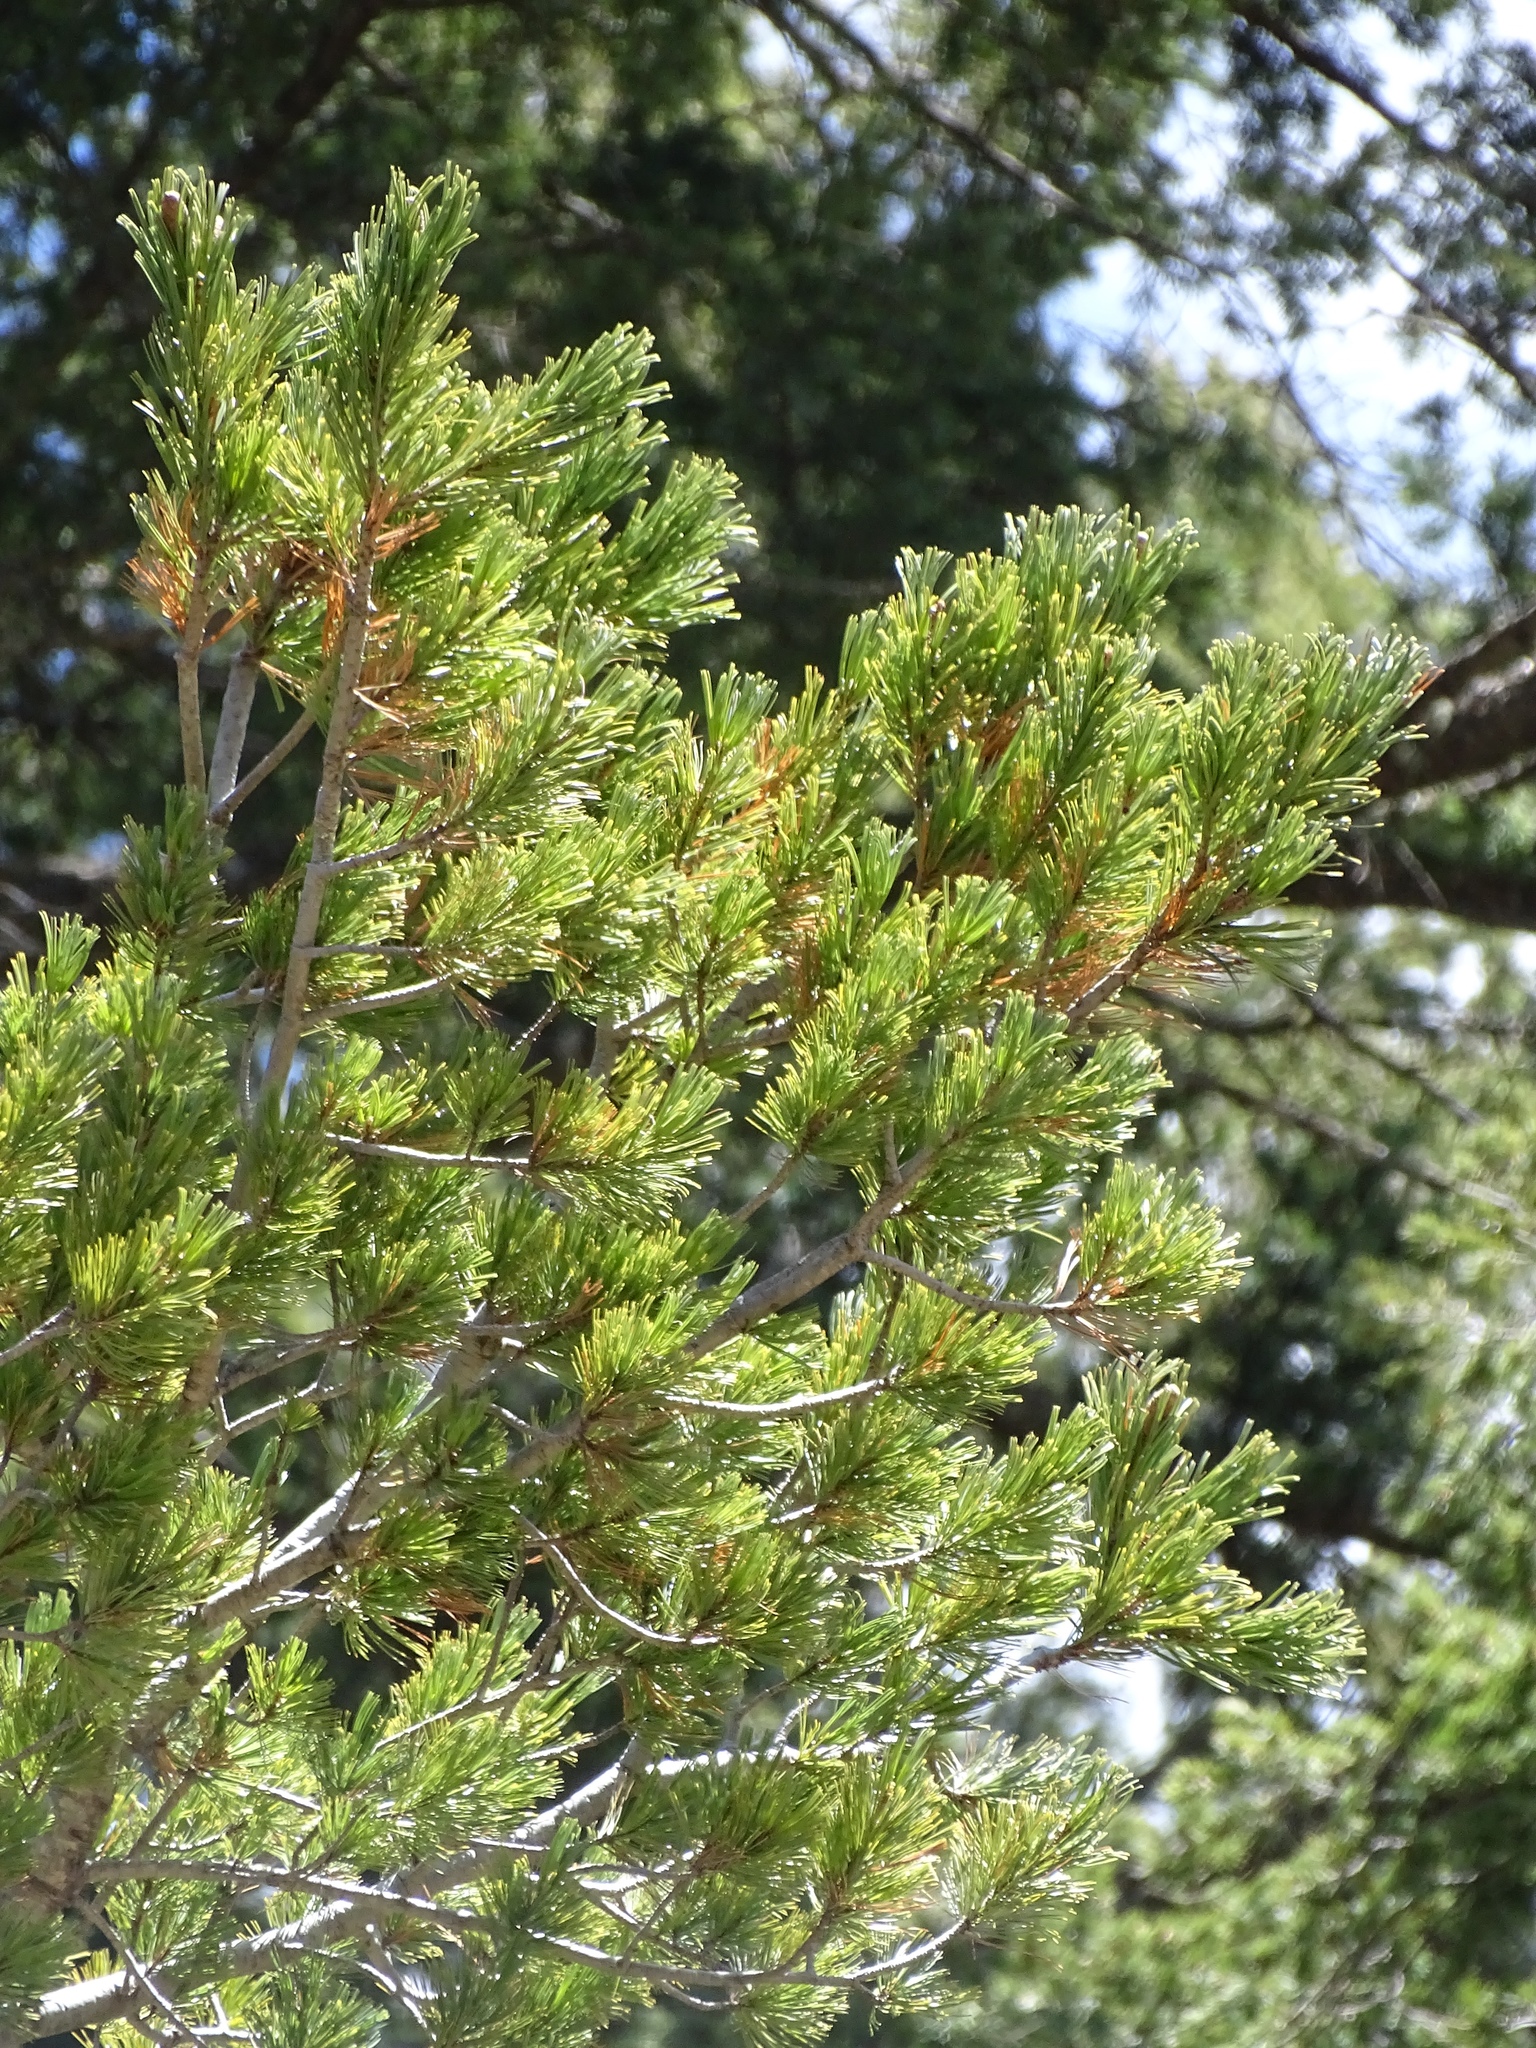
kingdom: Plantae
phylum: Tracheophyta
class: Pinopsida
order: Pinales
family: Pinaceae
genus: Pinus
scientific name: Pinus strobiformis
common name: Southwestern white pine
